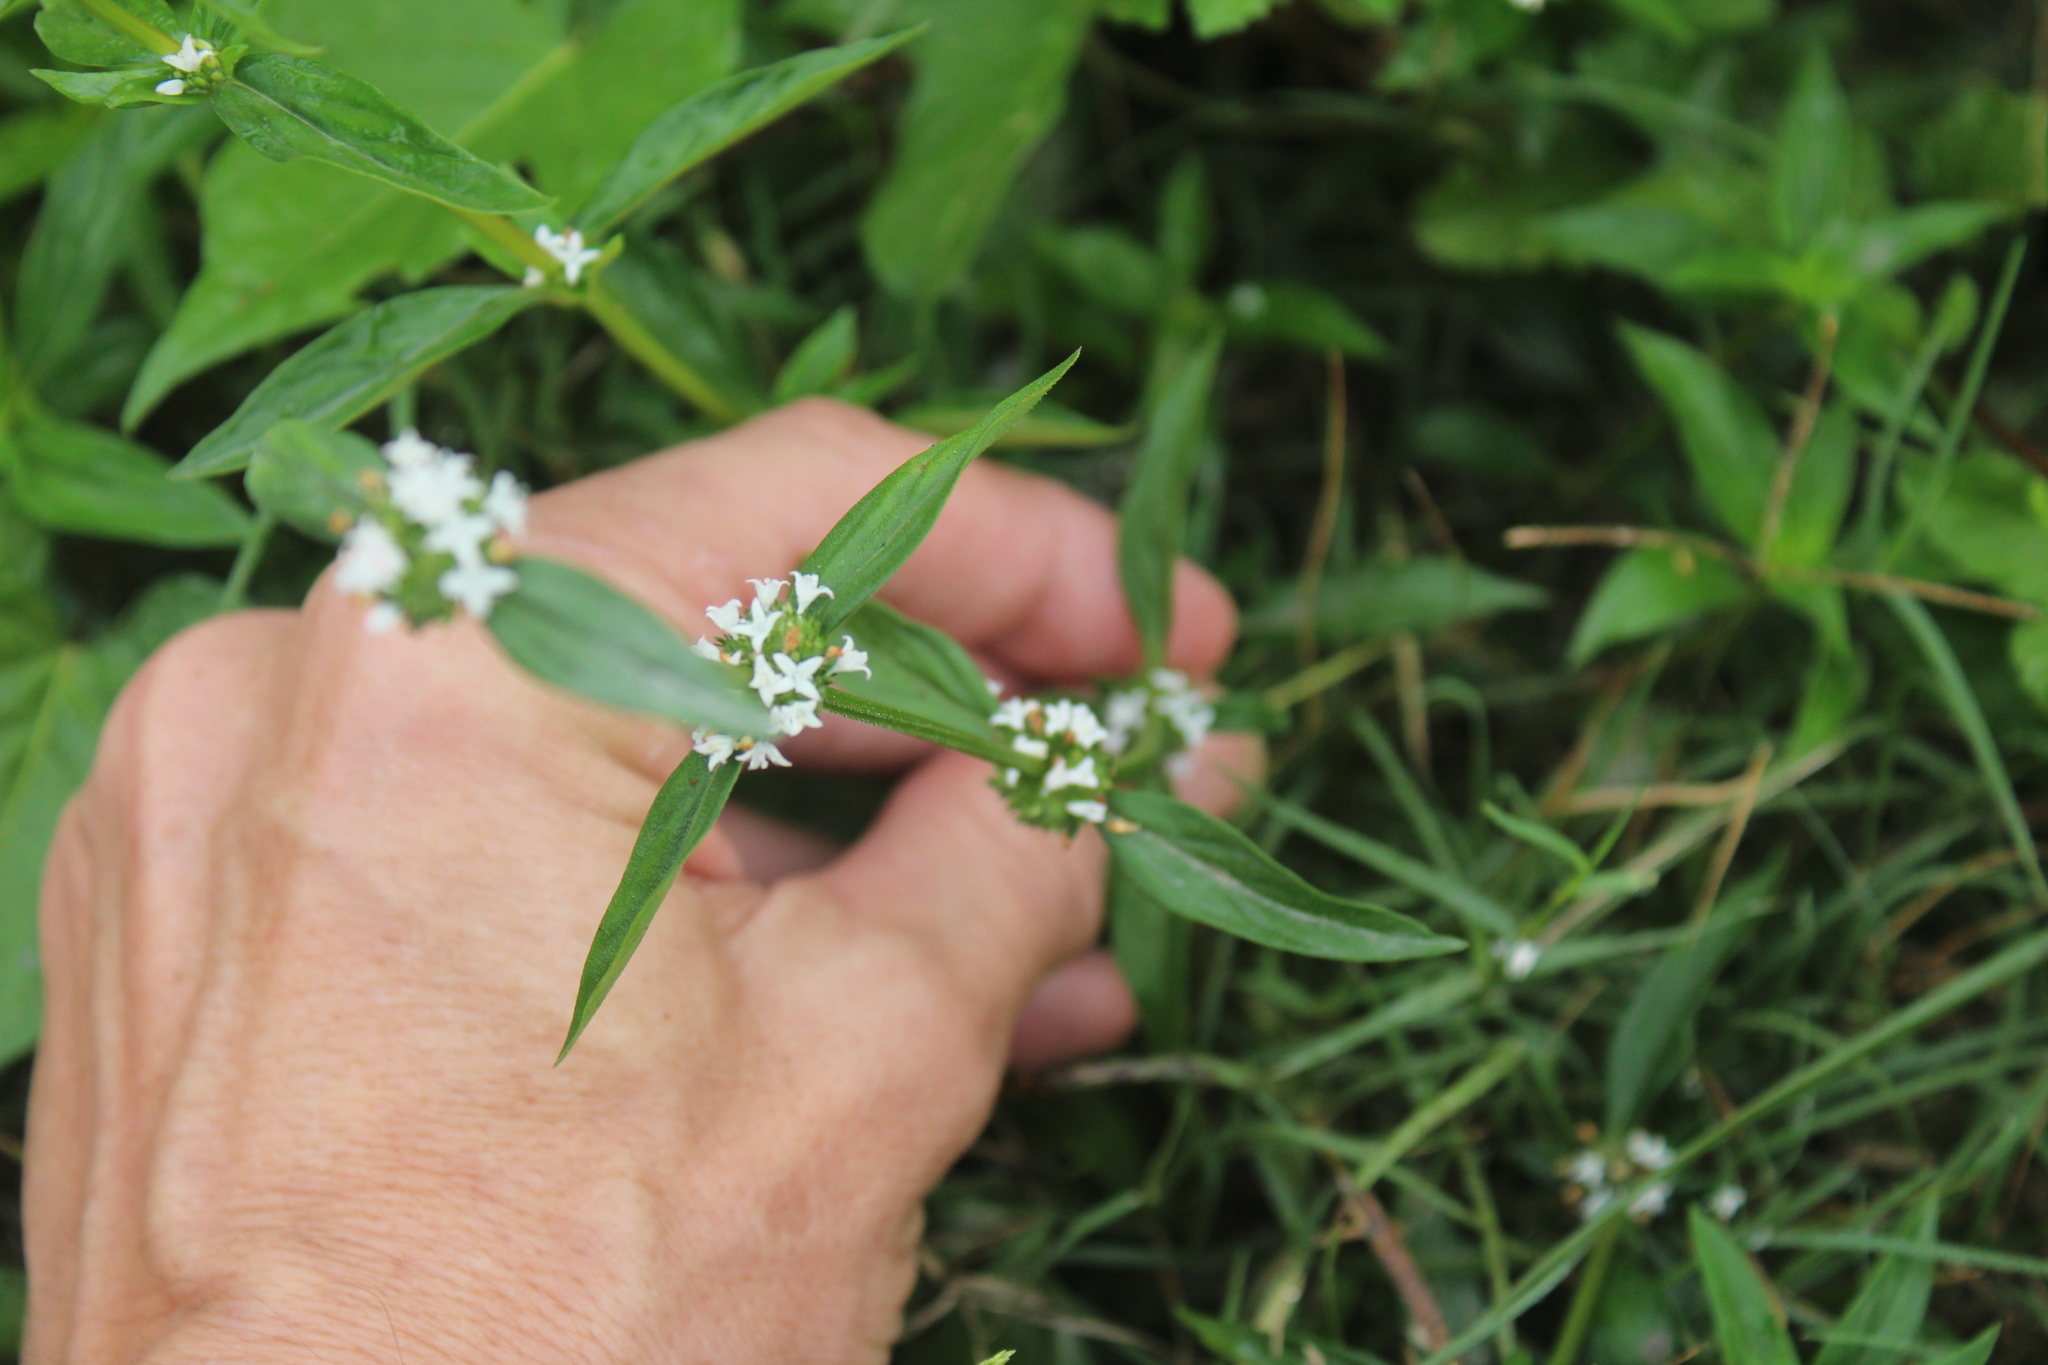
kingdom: Plantae
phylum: Tracheophyta
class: Magnoliopsida
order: Gentianales
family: Rubiaceae
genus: Spermacoce
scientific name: Spermacoce remota
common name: Woodland false buttonweed
